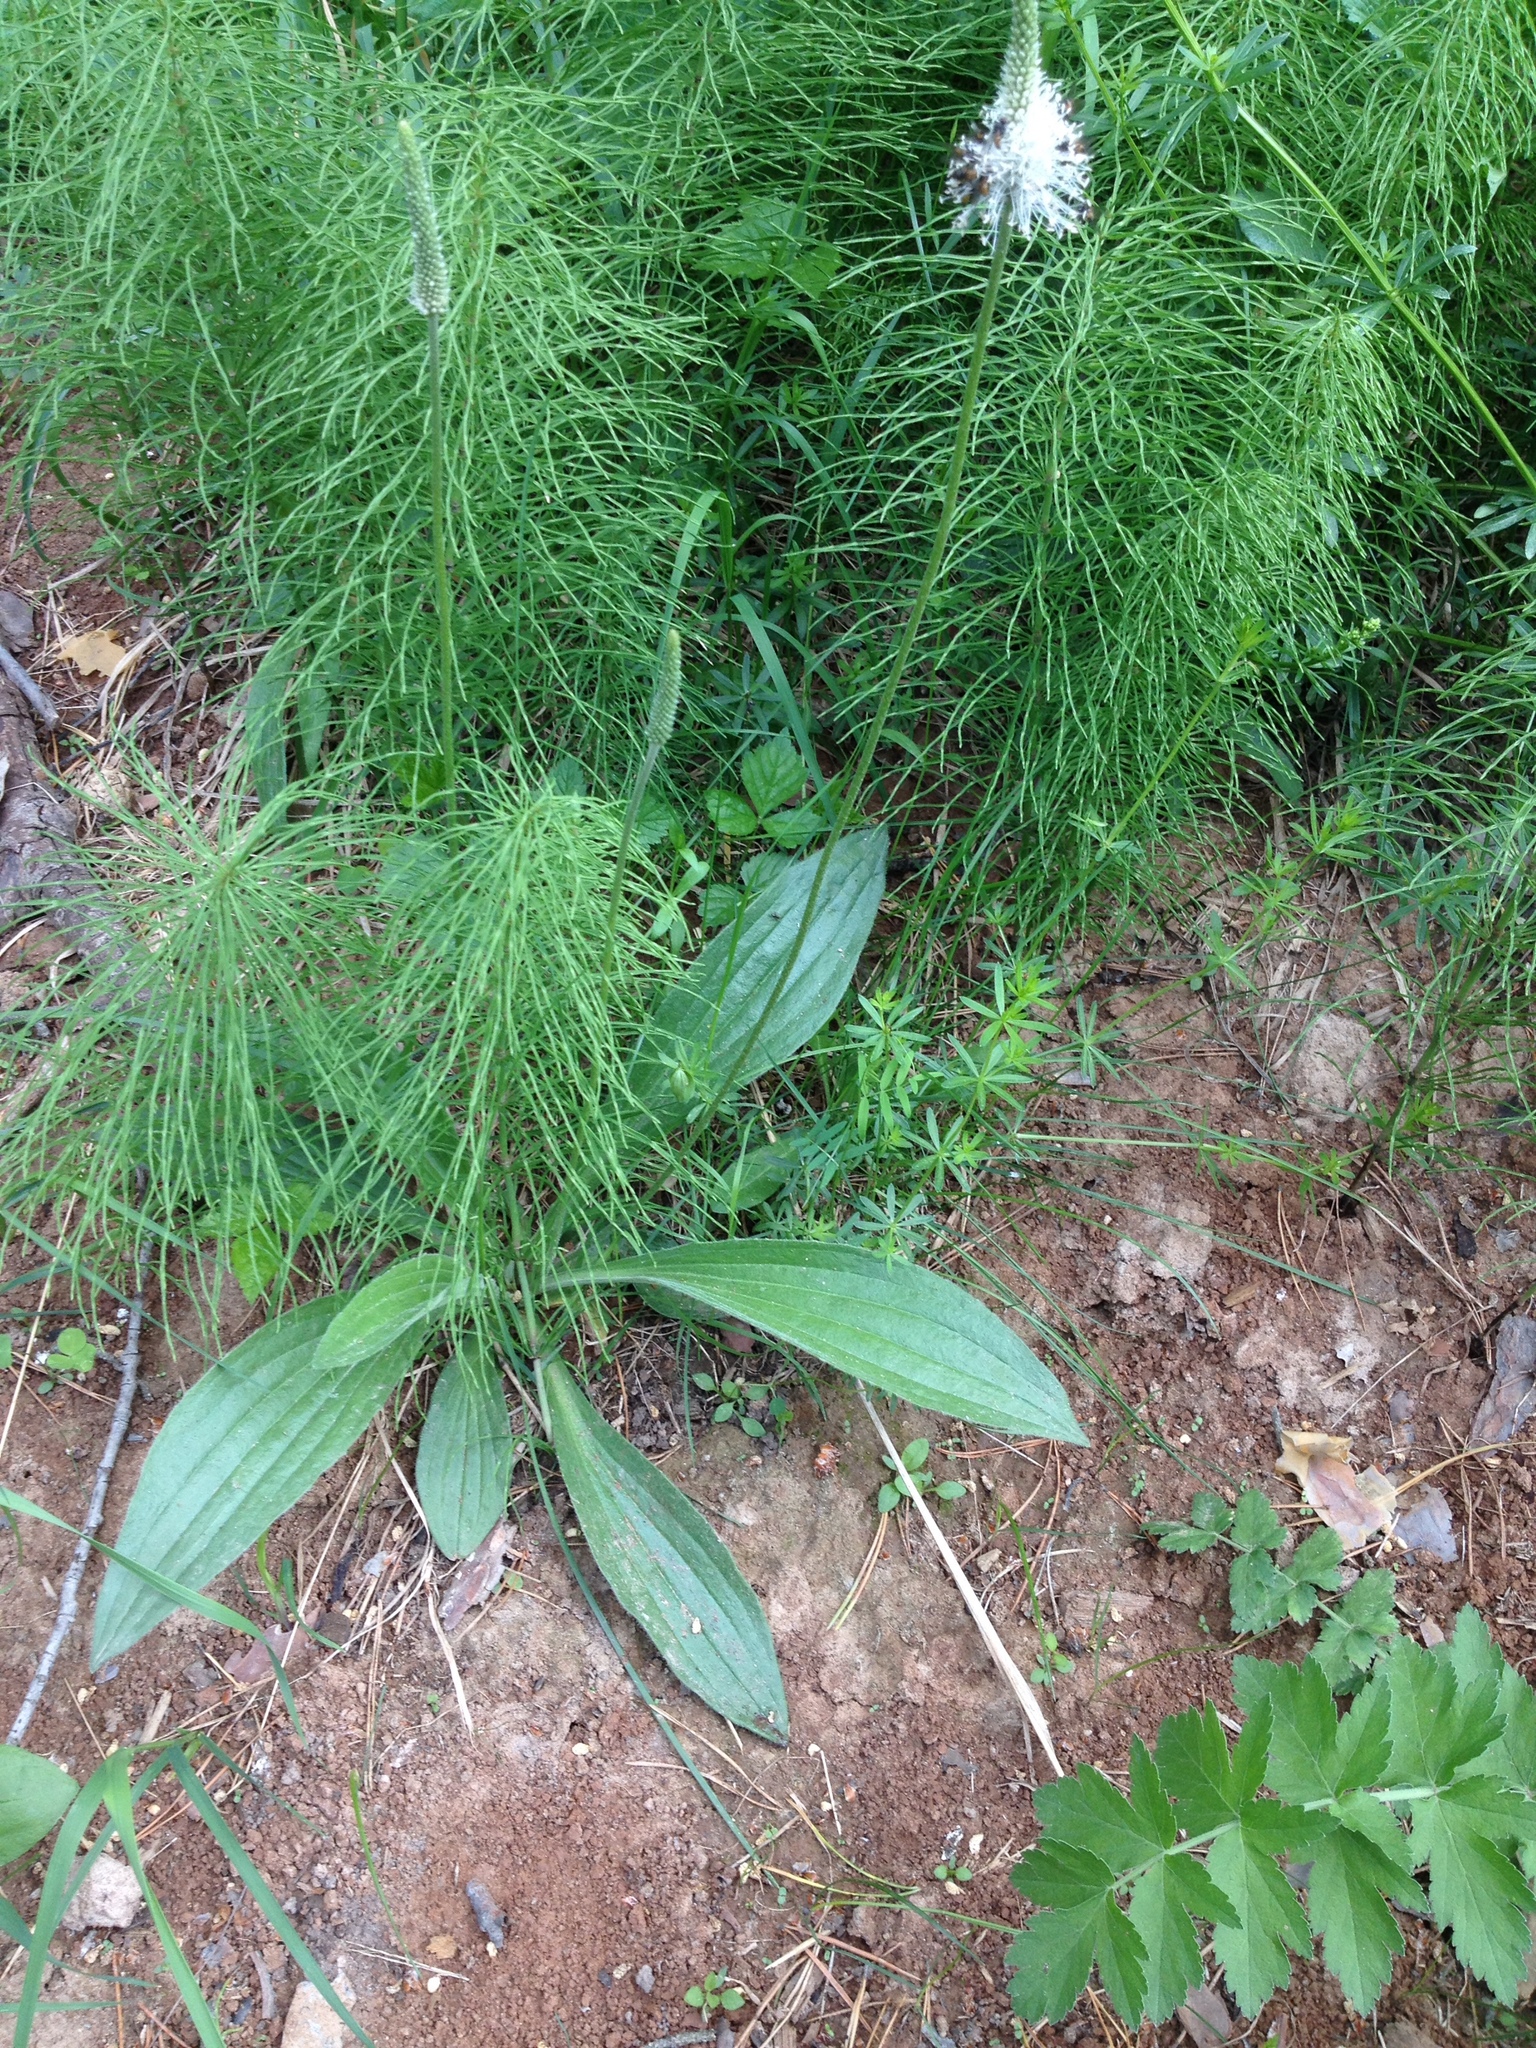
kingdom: Plantae
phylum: Tracheophyta
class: Magnoliopsida
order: Lamiales
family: Plantaginaceae
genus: Plantago
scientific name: Plantago urvillei
